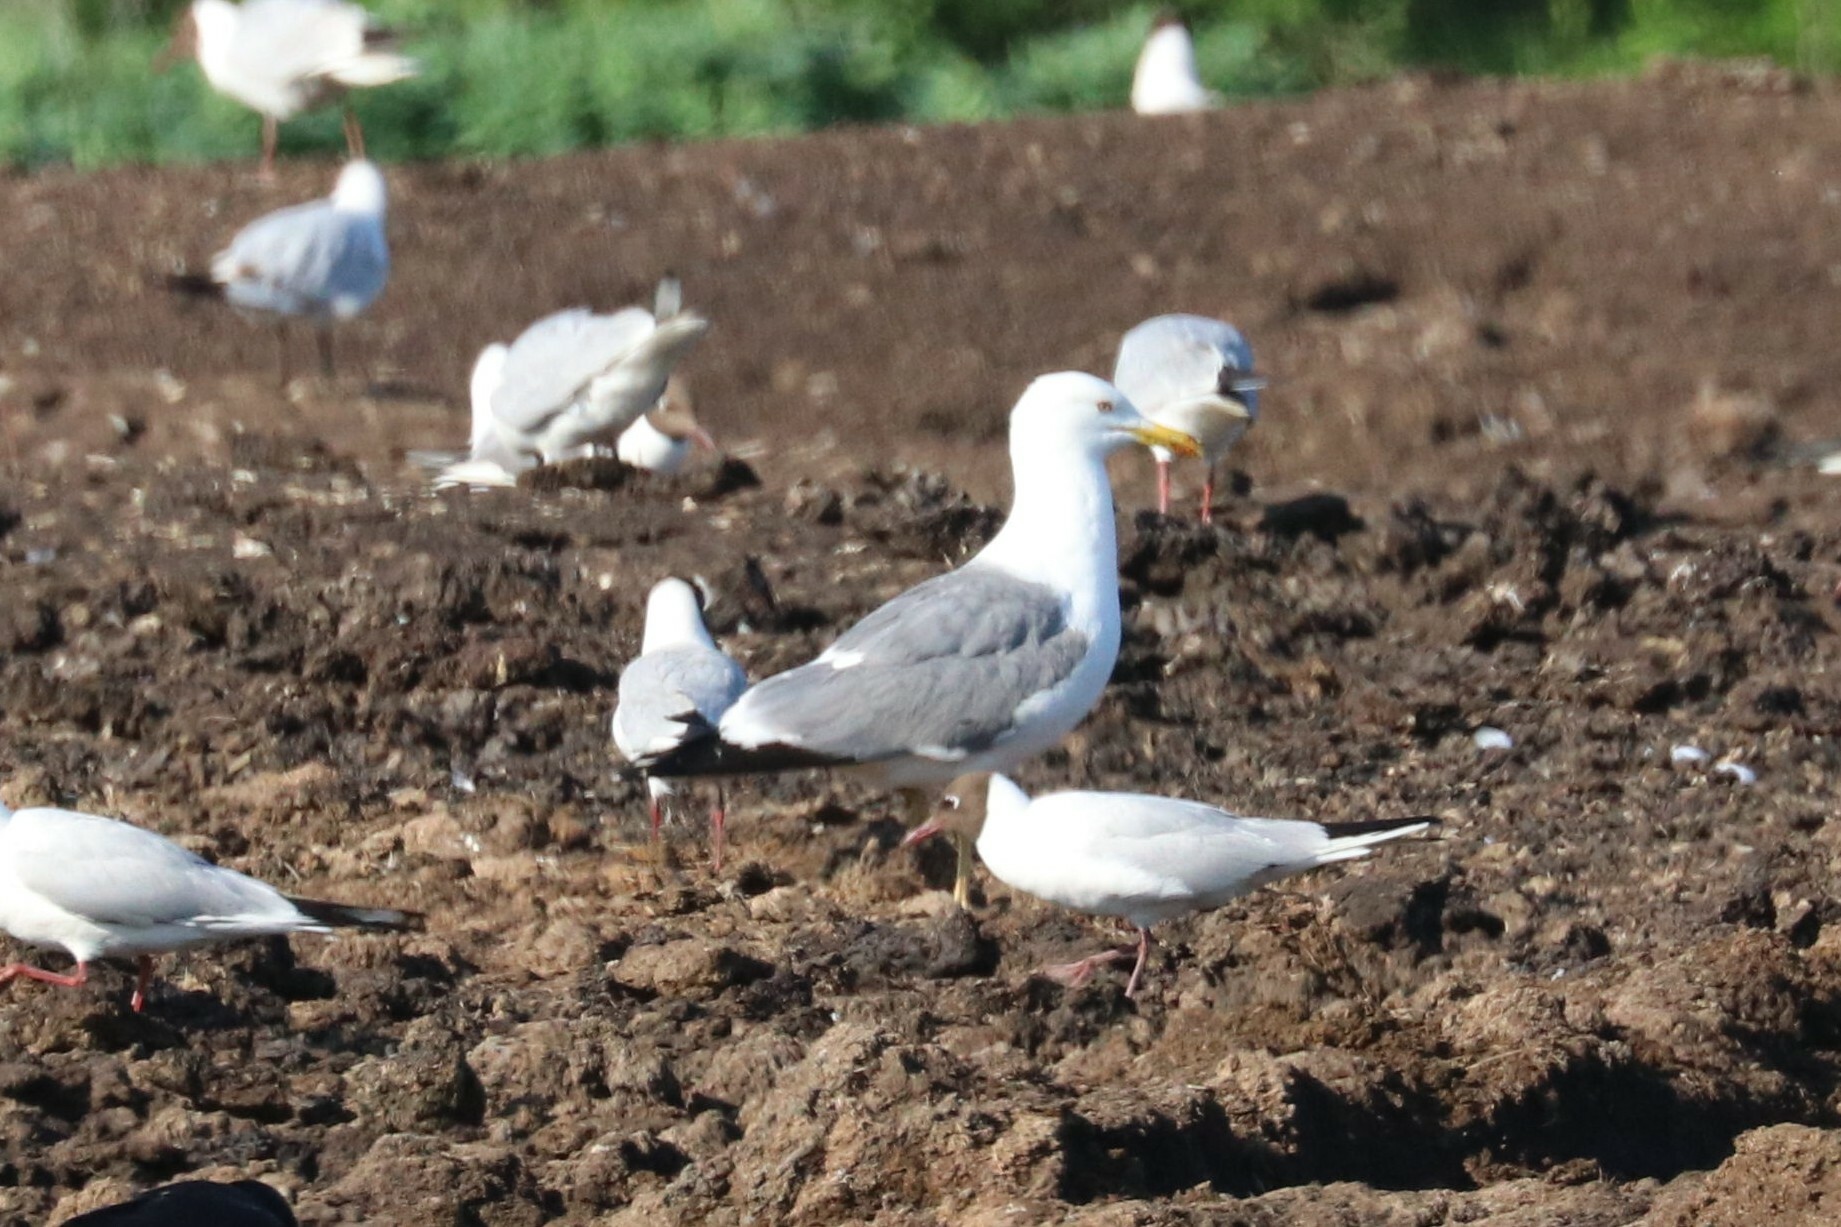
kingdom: Animalia
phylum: Chordata
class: Aves
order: Charadriiformes
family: Laridae
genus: Larus
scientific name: Larus fuscus
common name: Lesser black-backed gull
